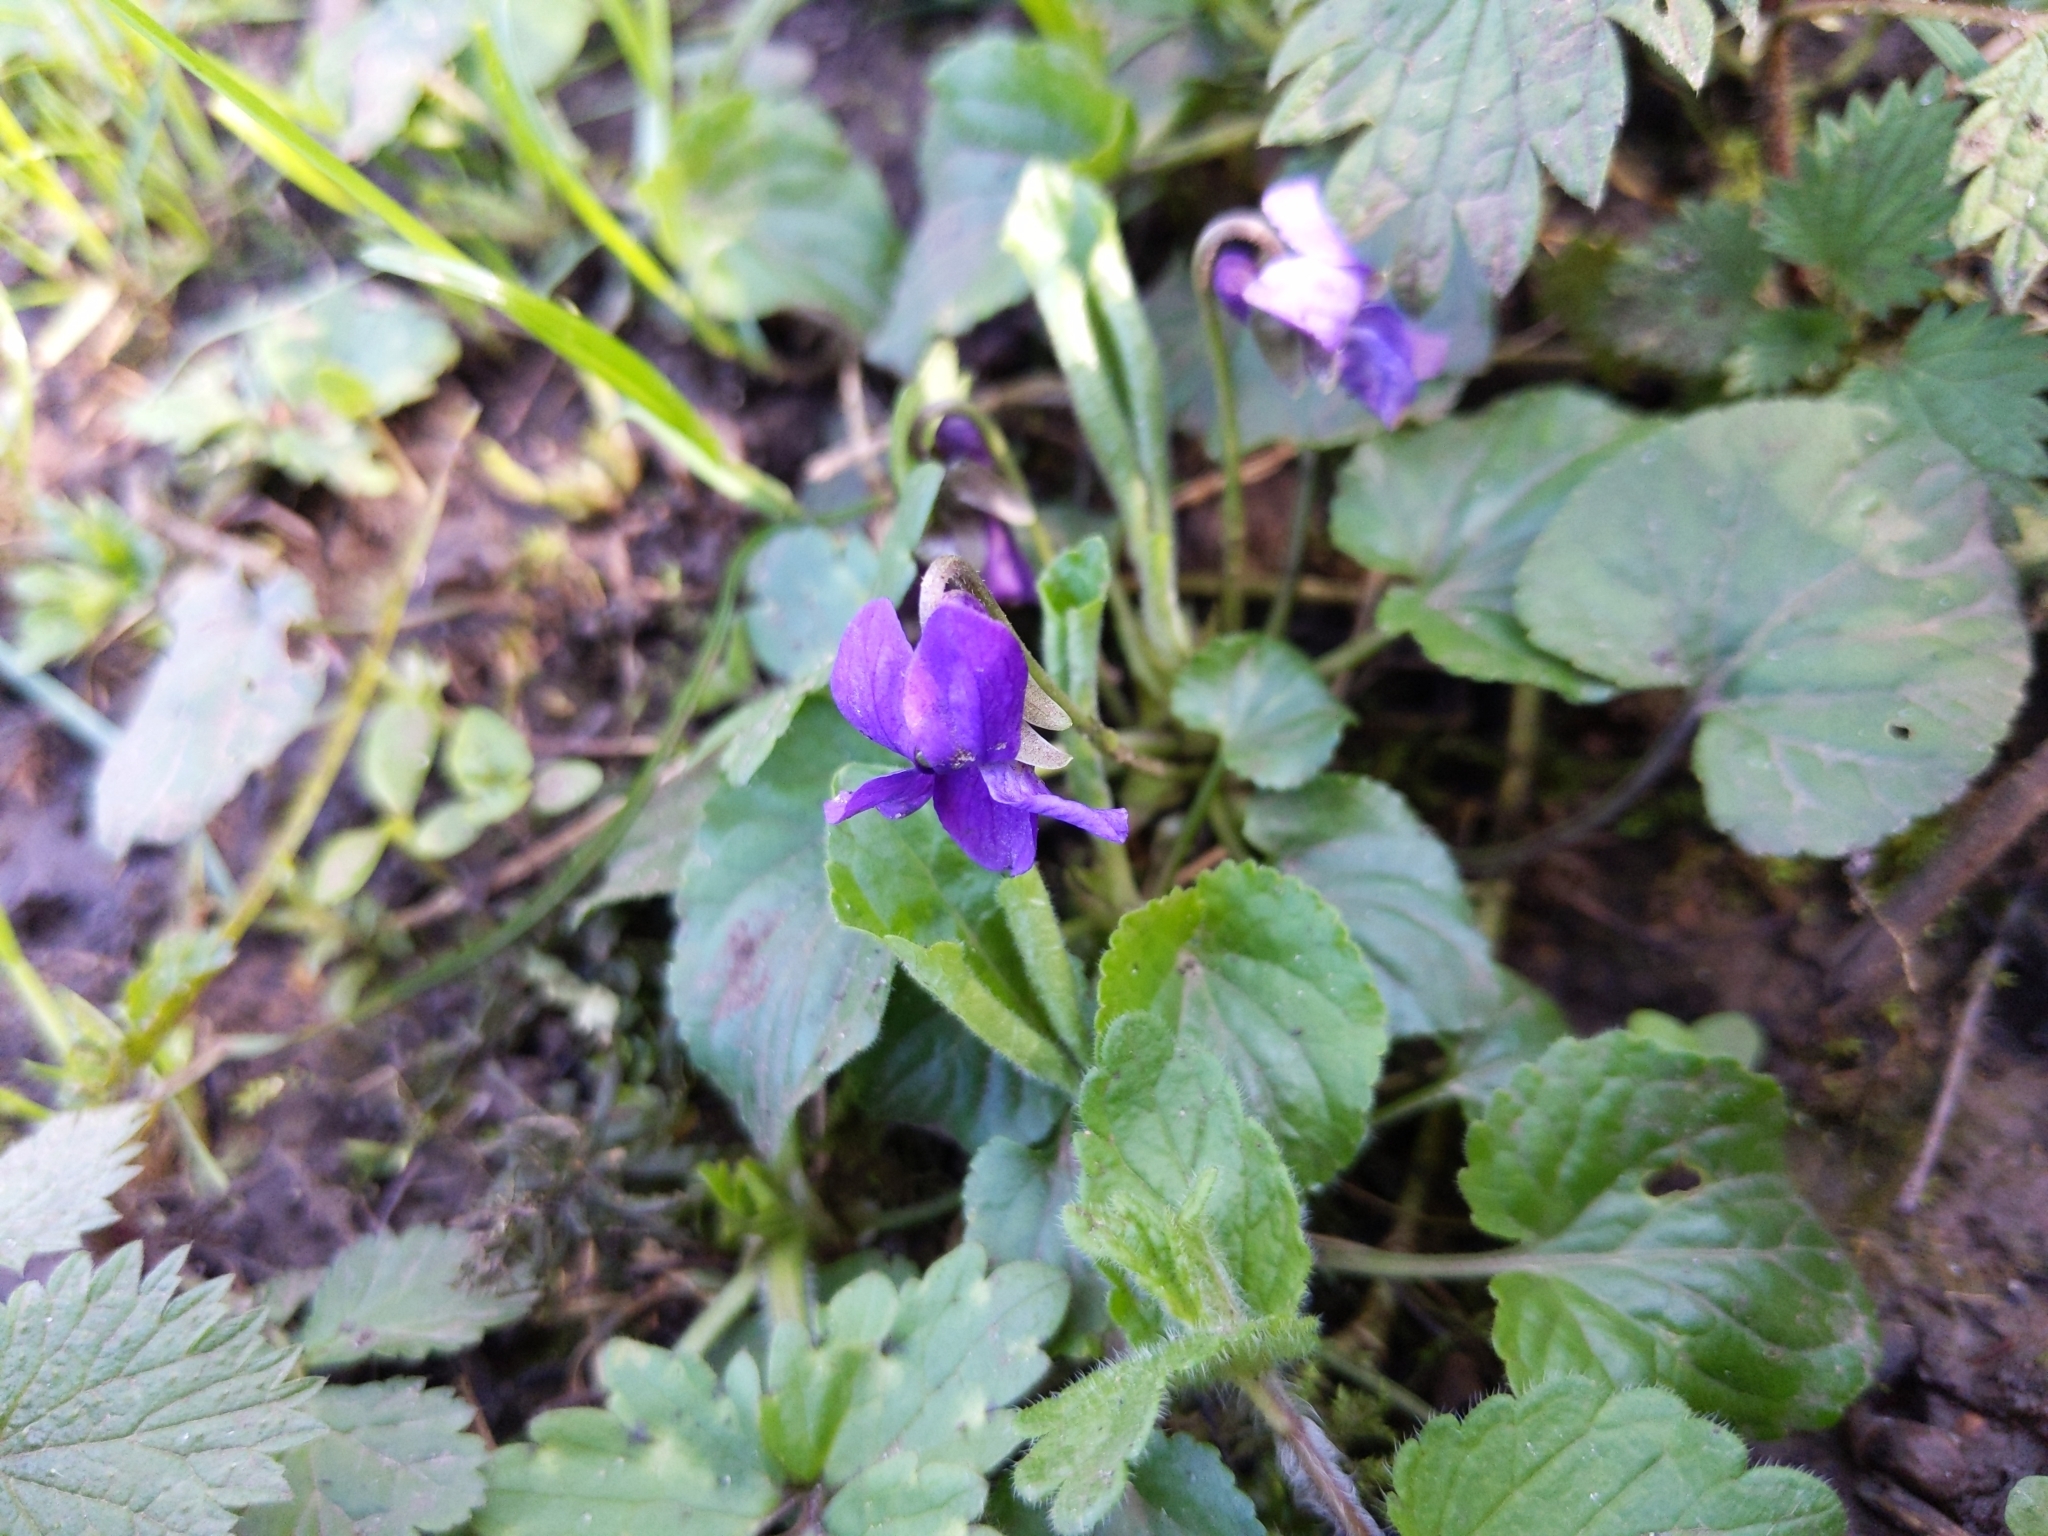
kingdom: Plantae
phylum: Tracheophyta
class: Magnoliopsida
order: Malpighiales
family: Violaceae
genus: Viola
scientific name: Viola odorata
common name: Sweet violet
